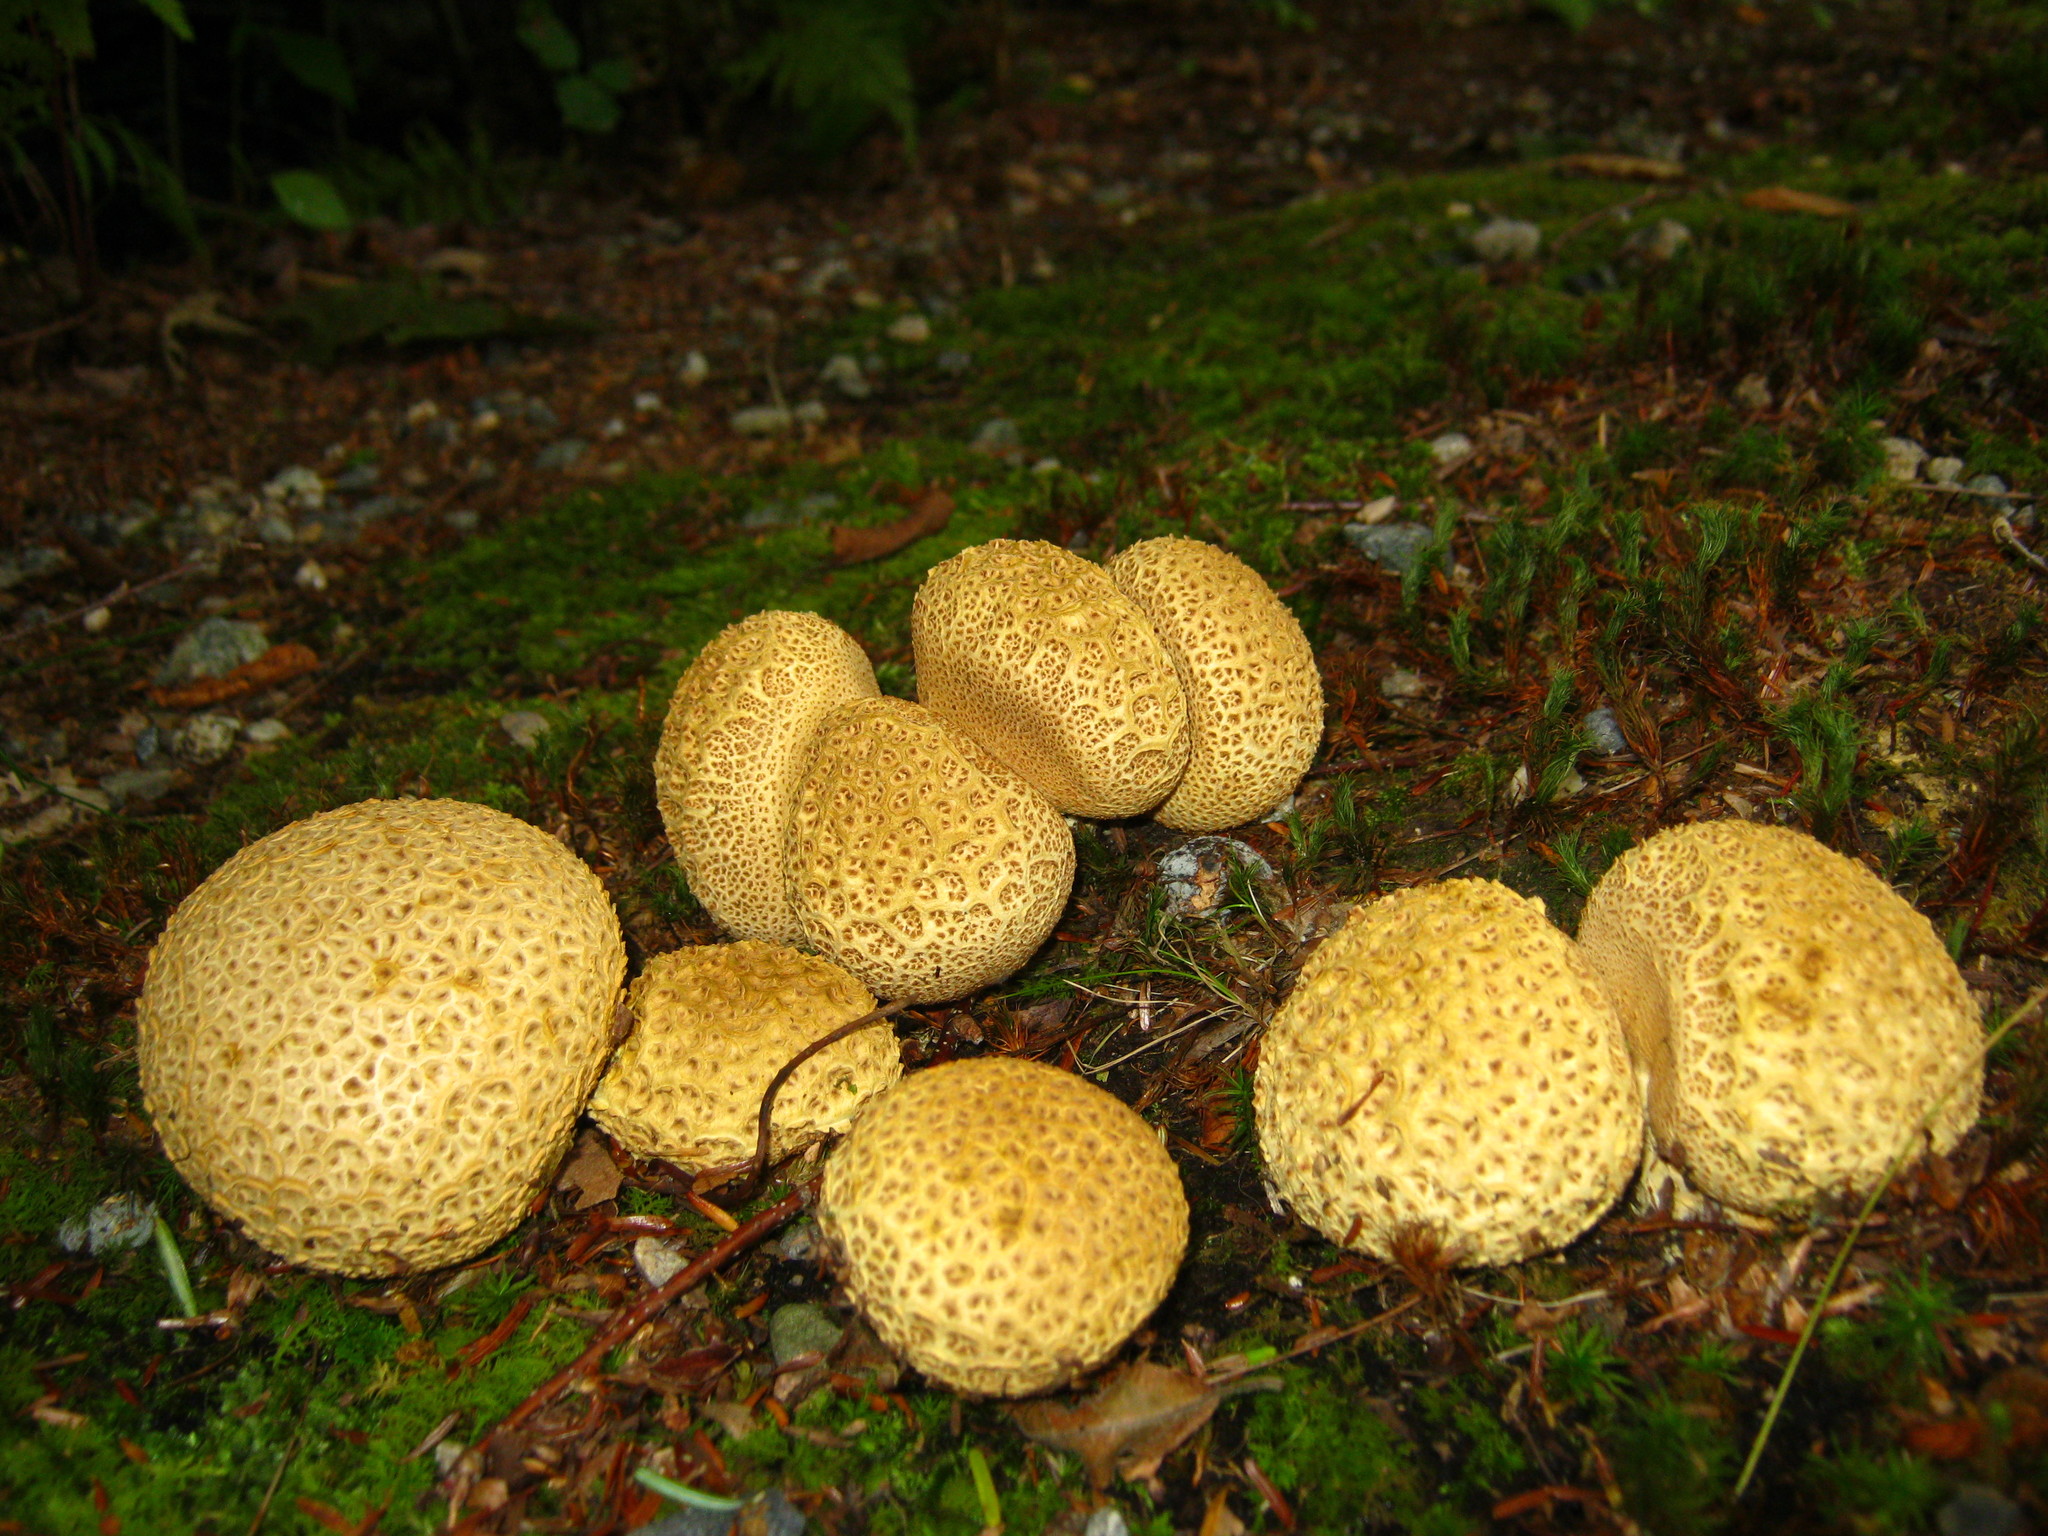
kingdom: Fungi
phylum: Basidiomycota
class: Agaricomycetes
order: Boletales
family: Sclerodermataceae
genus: Scleroderma
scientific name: Scleroderma citrinum
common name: Common earthball
